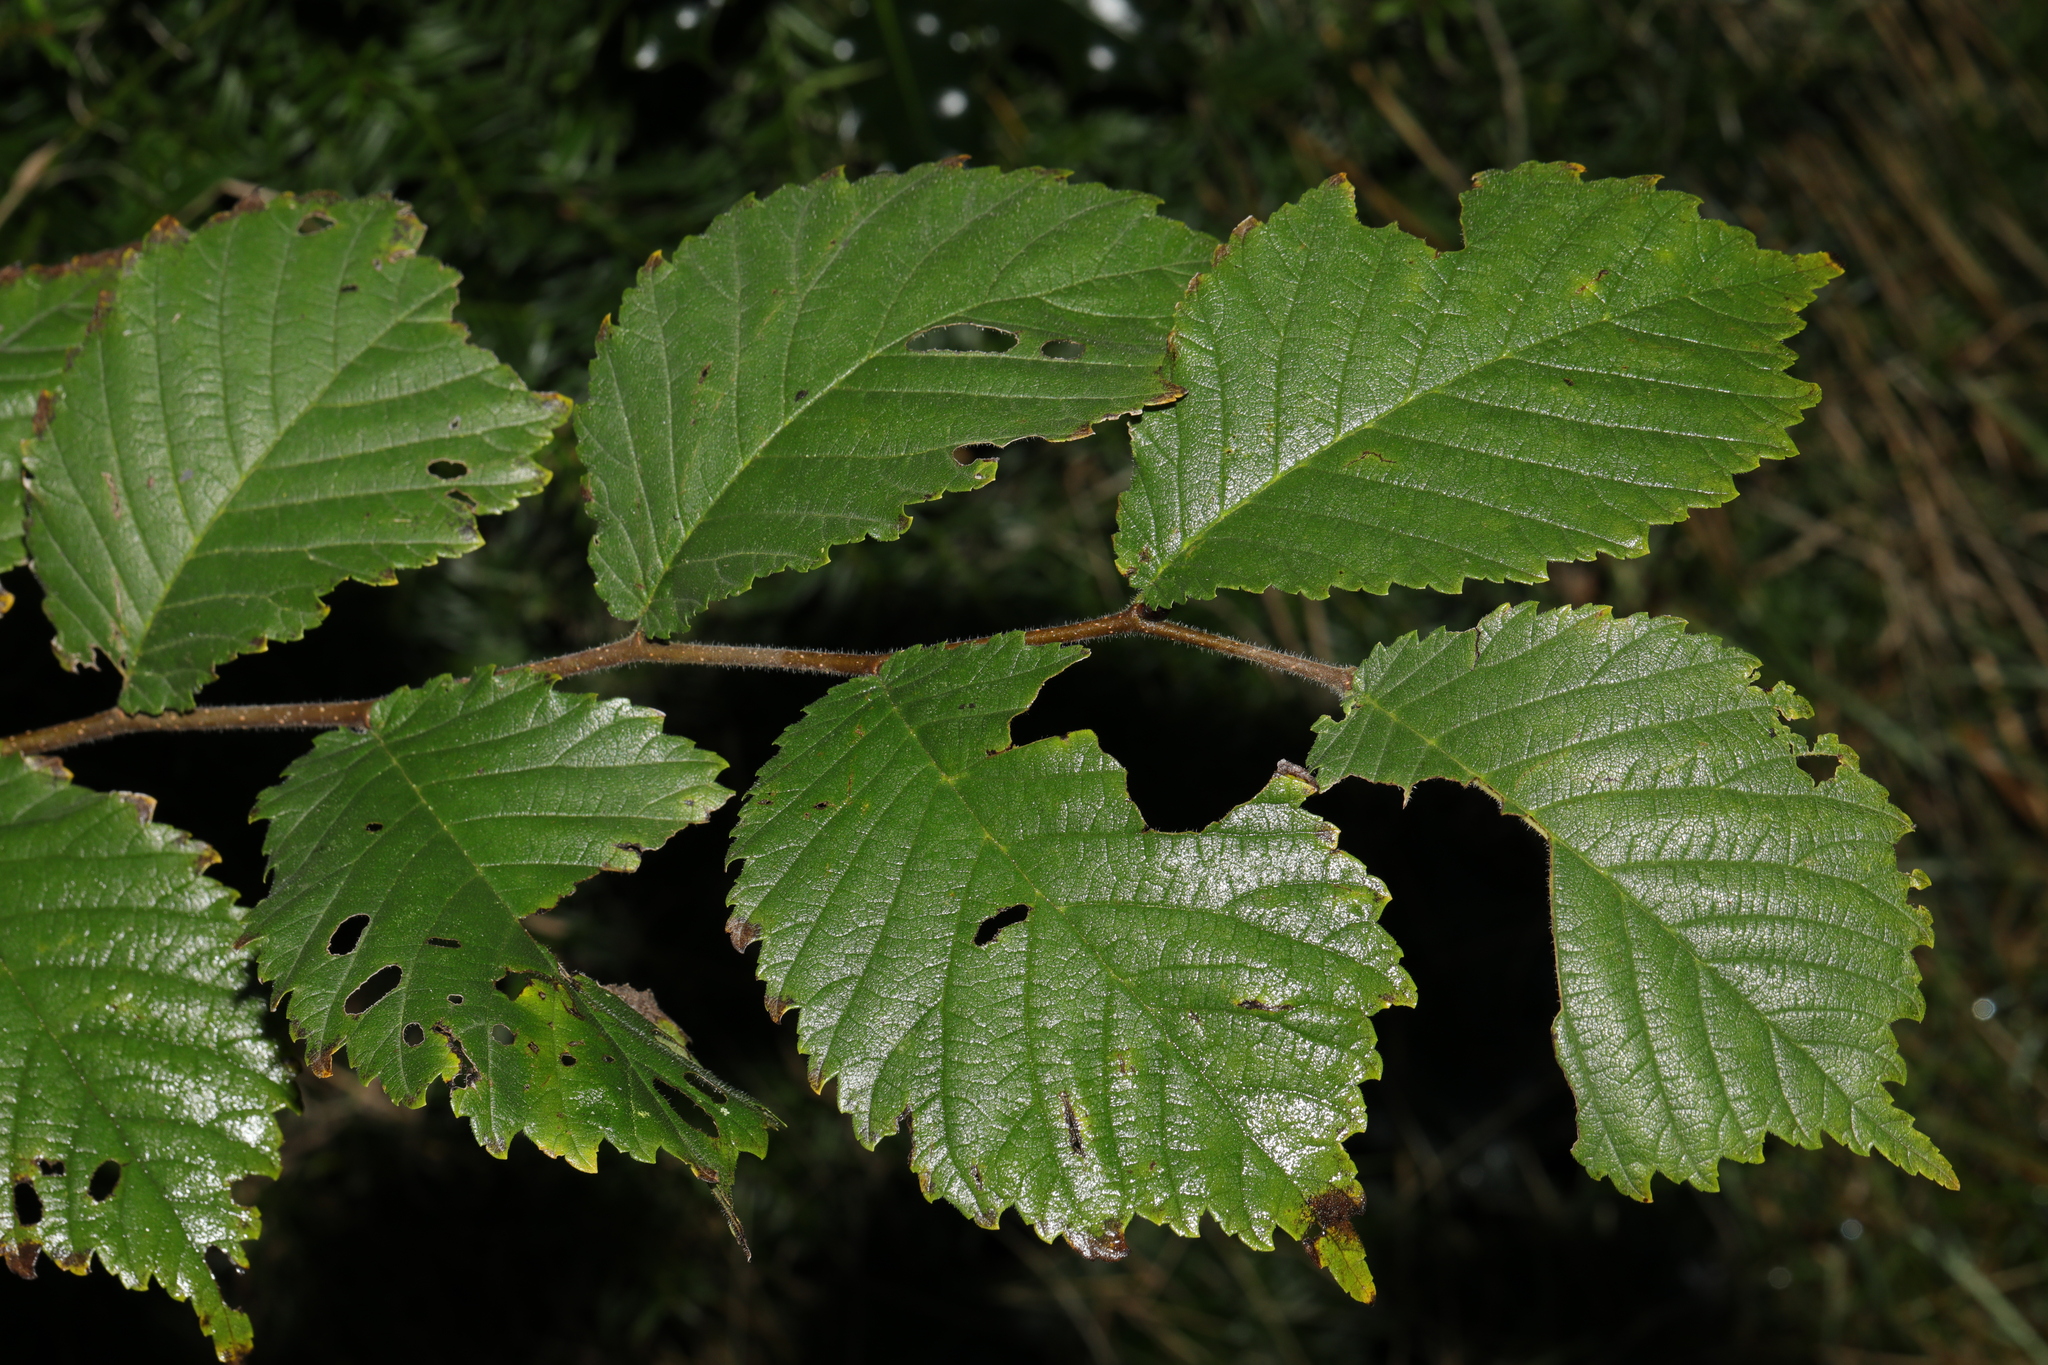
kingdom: Plantae
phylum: Tracheophyta
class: Magnoliopsida
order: Rosales
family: Ulmaceae
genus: Ulmus
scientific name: Ulmus glabra
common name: Wych elm
